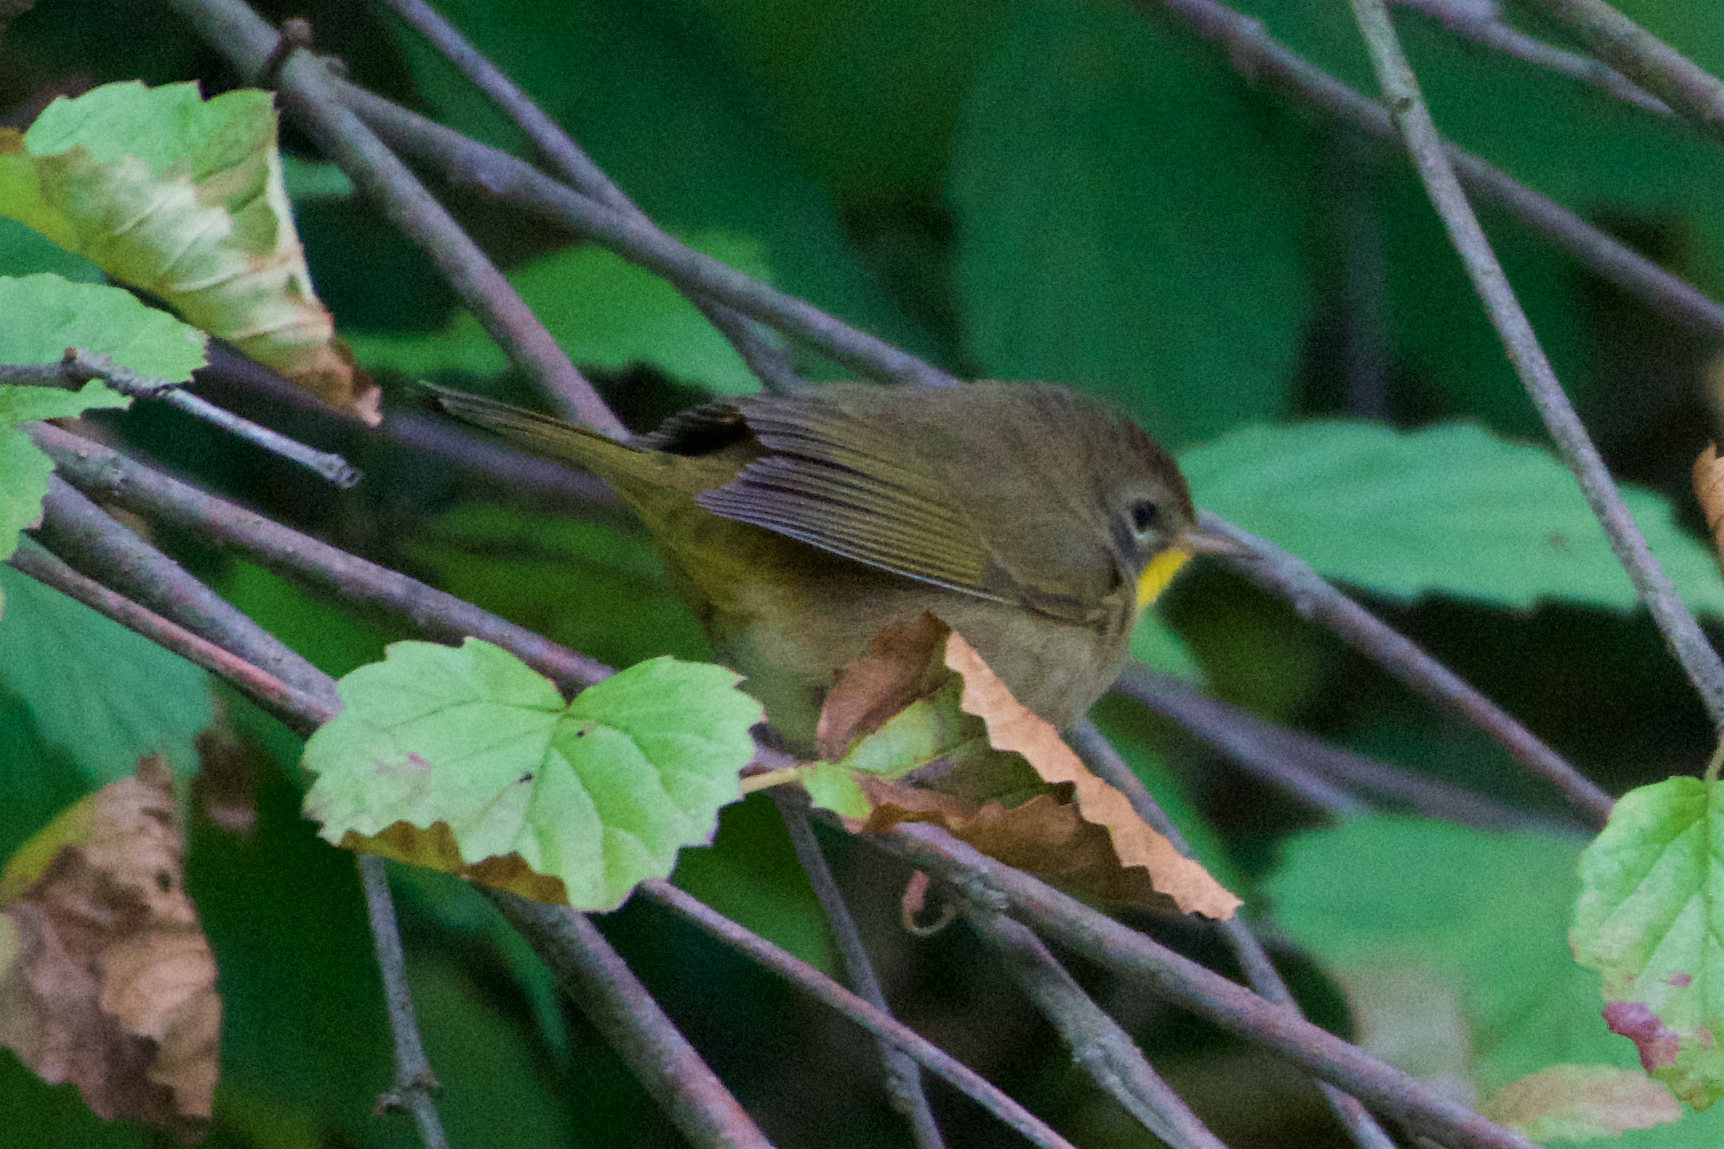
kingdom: Animalia
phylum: Chordata
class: Aves
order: Passeriformes
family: Parulidae
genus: Geothlypis
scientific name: Geothlypis trichas
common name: Common yellowthroat
